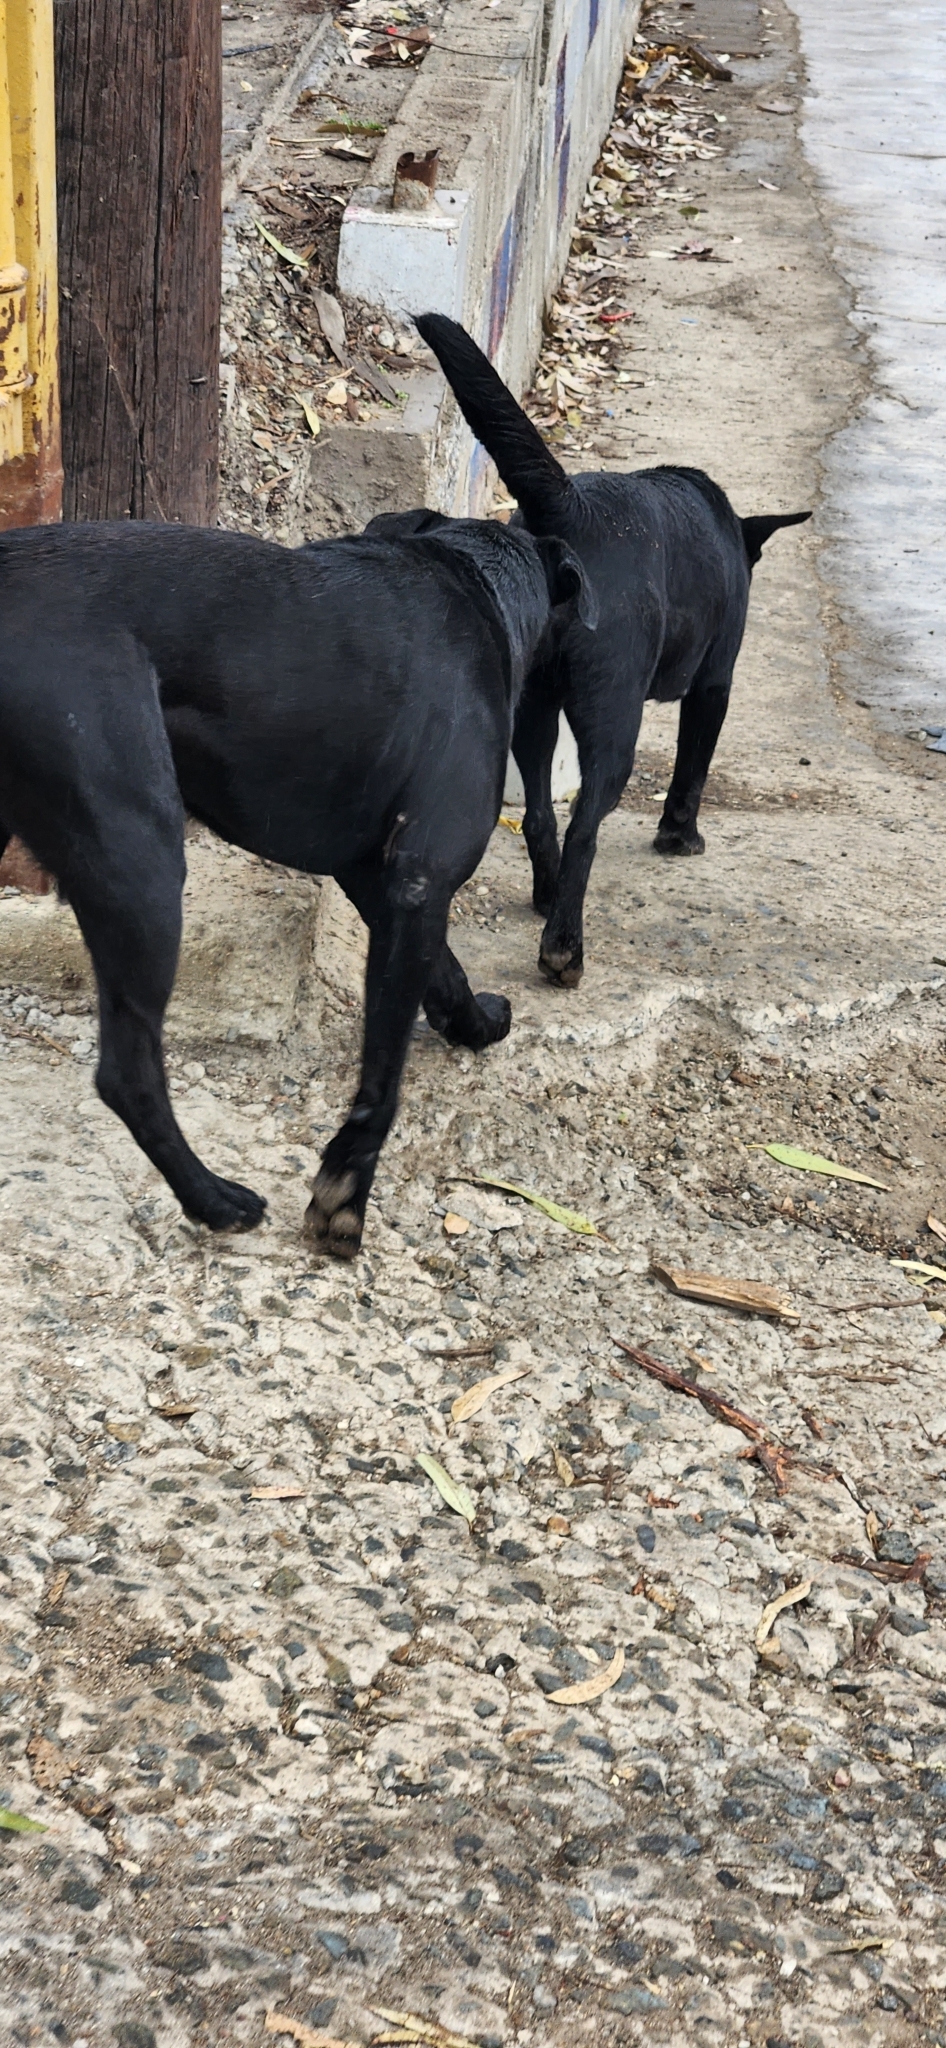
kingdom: Animalia
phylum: Chordata
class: Mammalia
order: Carnivora
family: Canidae
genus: Canis
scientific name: Canis lupus
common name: Gray wolf
